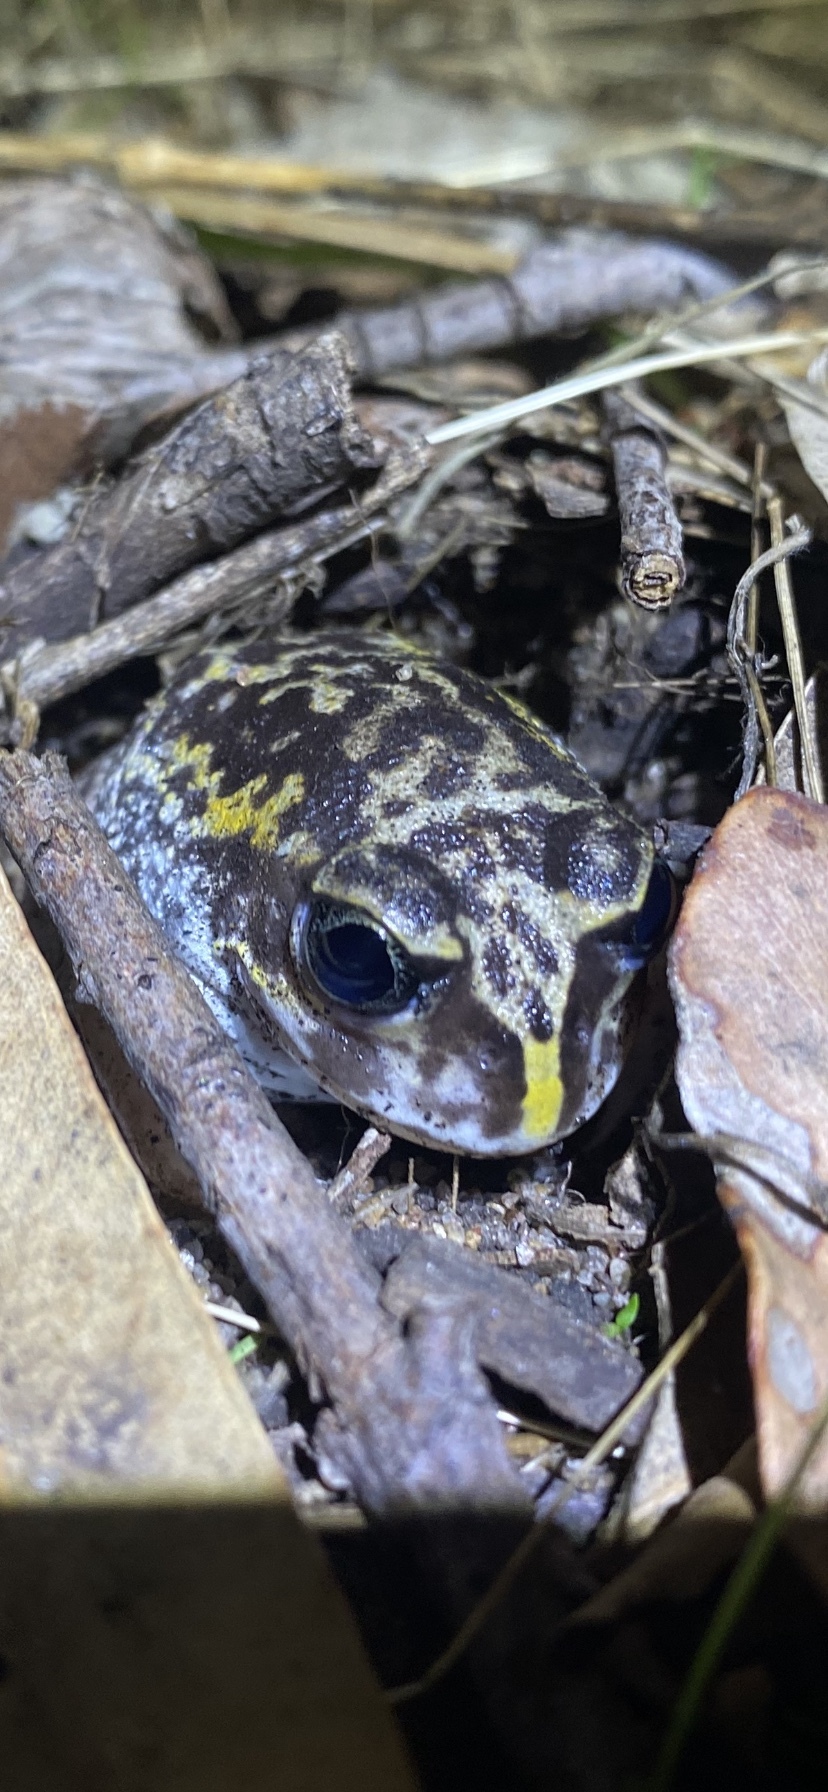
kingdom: Animalia
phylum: Chordata
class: Amphibia
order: Anura
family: Limnodynastidae
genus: Heleioporus
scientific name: Heleioporus eyrei
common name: Moaning frog
